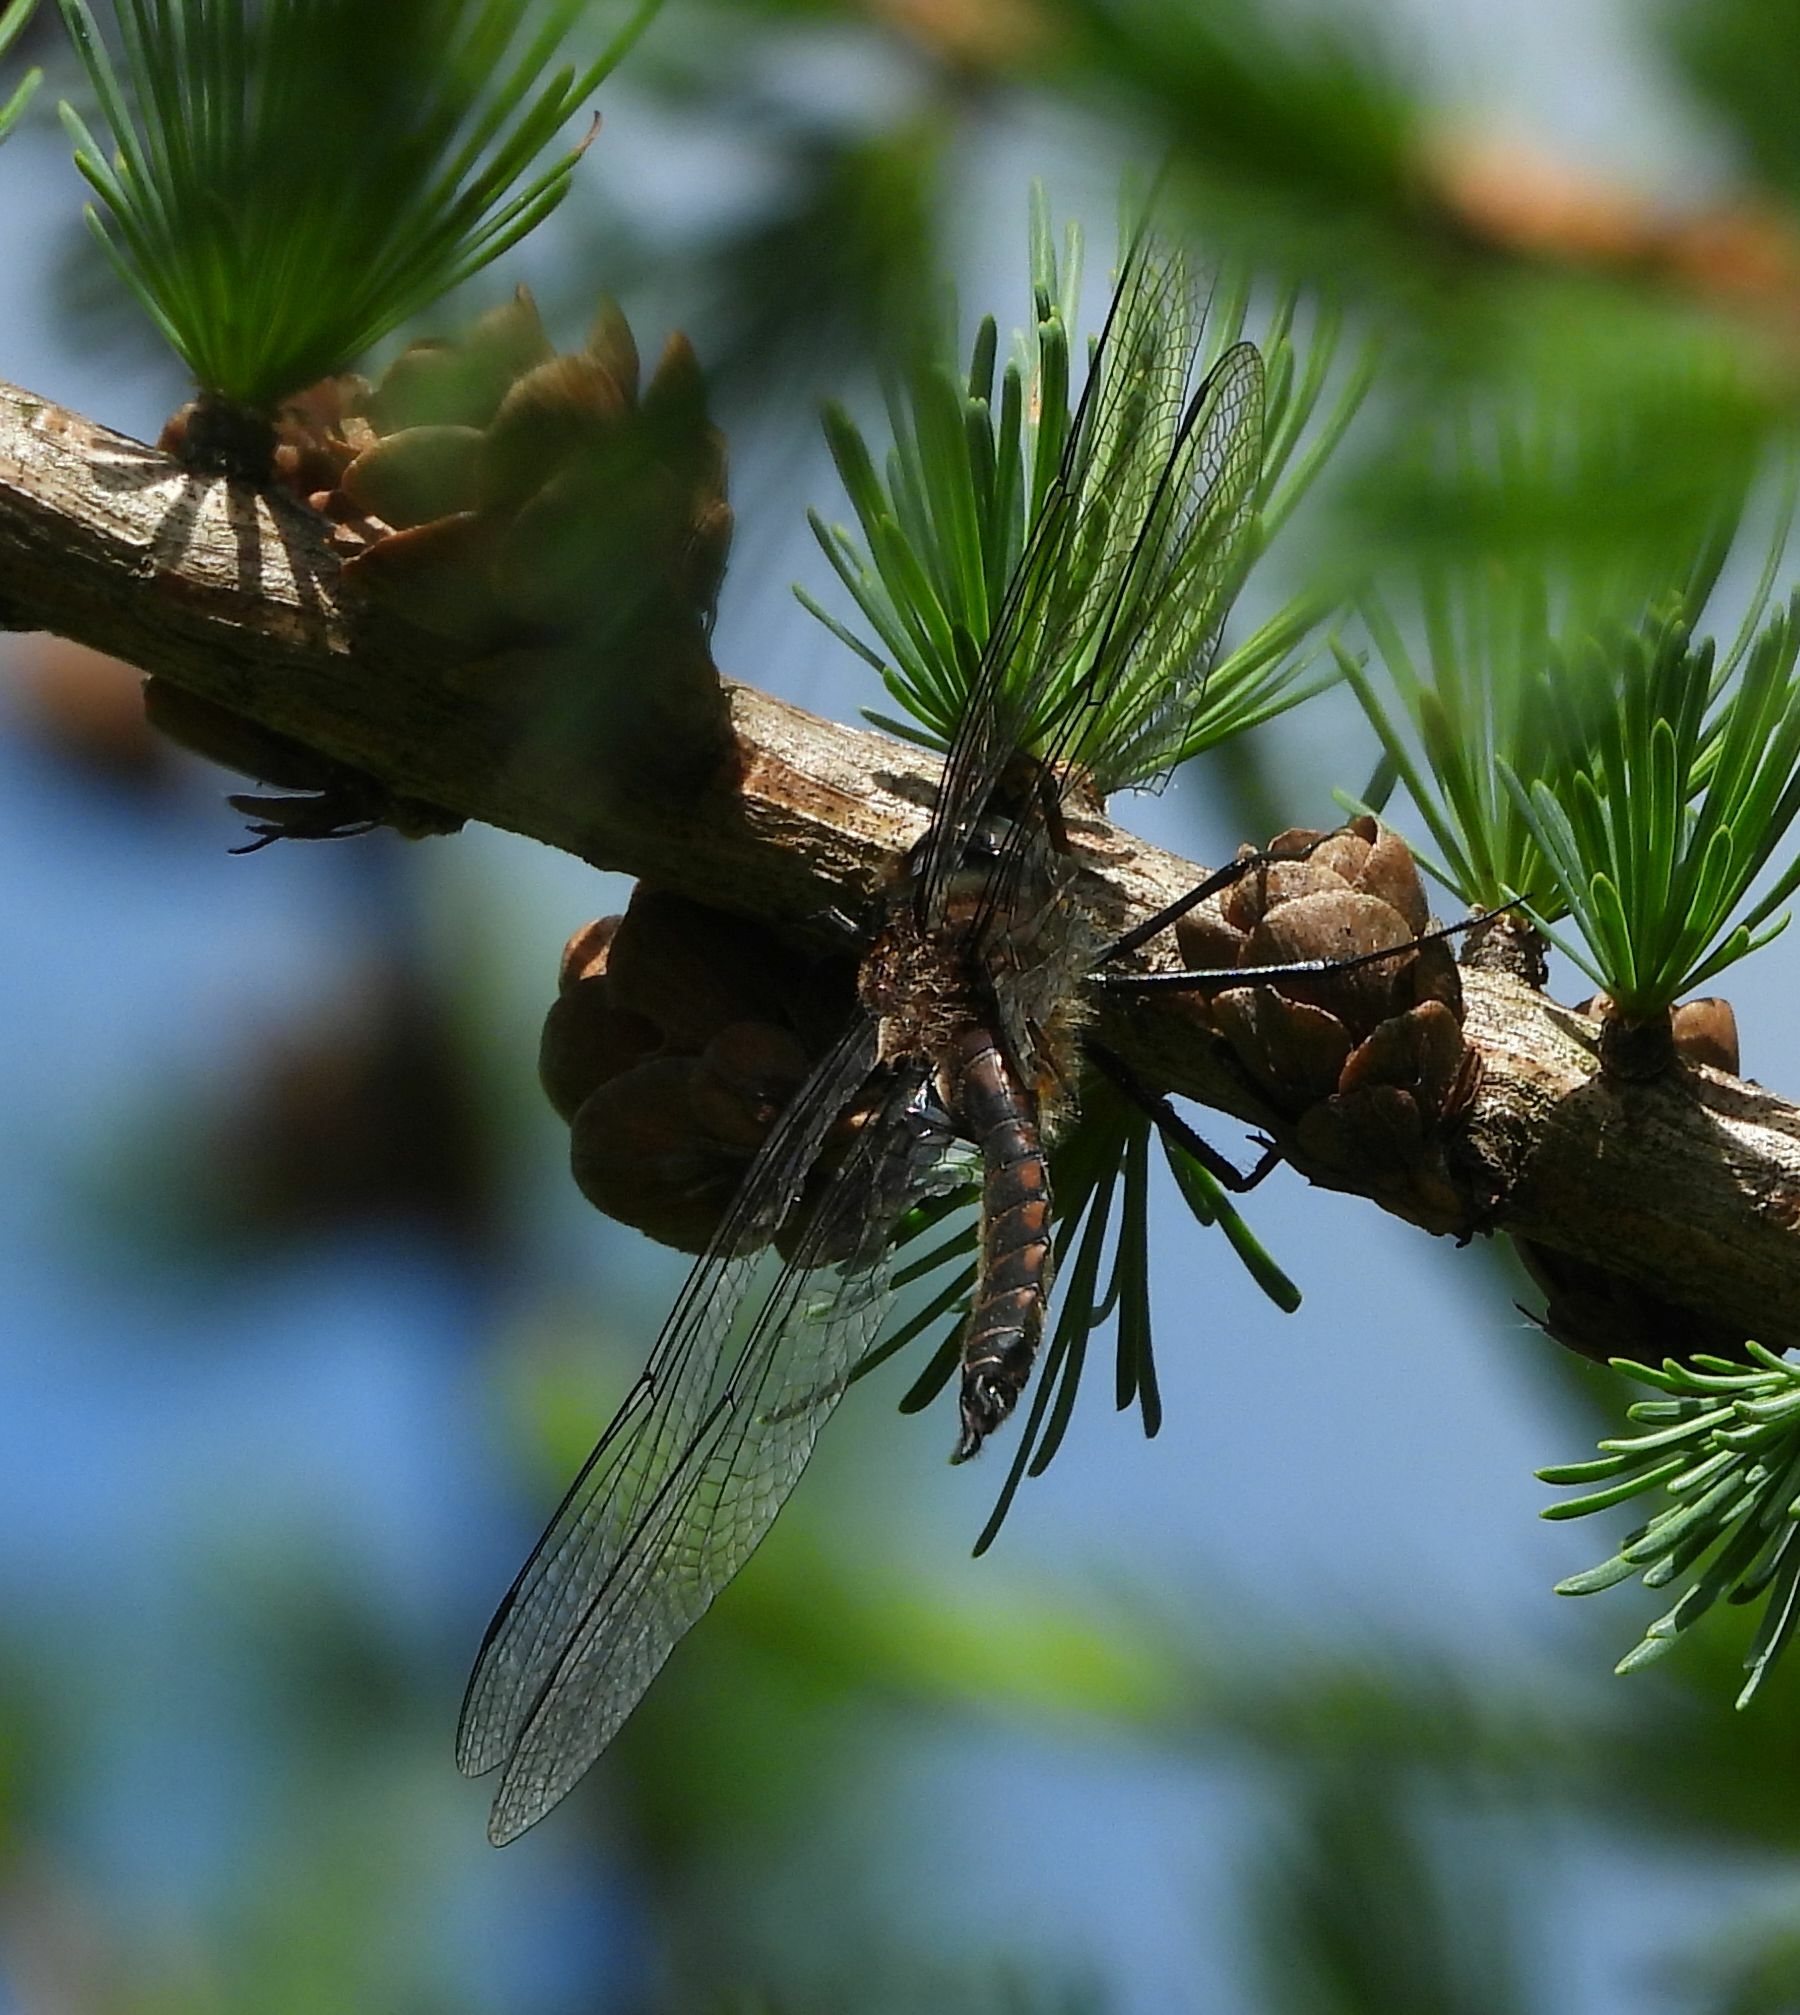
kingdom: Animalia
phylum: Arthropoda
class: Insecta
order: Odonata
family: Corduliidae
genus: Epitheca
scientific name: Epitheca spinigera
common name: Spiny baskettail
